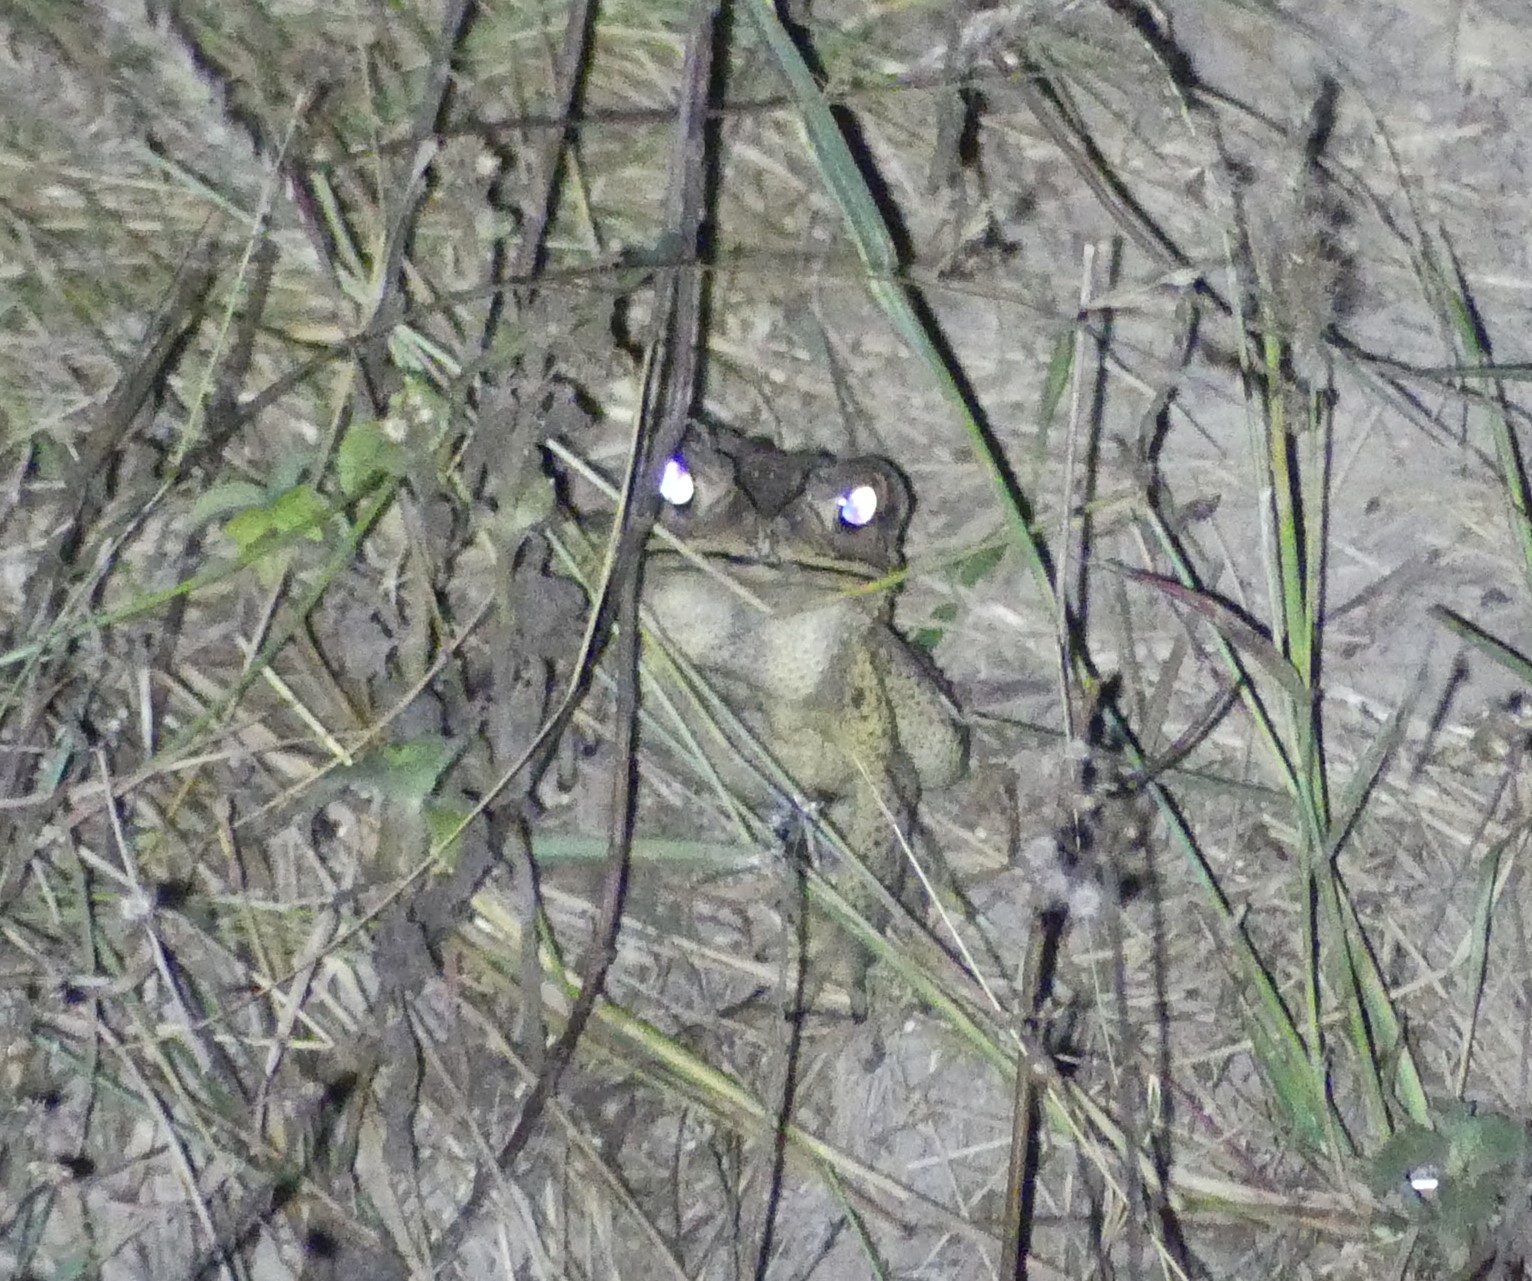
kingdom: Animalia
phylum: Chordata
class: Amphibia
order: Anura
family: Bufonidae
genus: Duttaphrynus
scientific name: Duttaphrynus melanostictus
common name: Common sunda toad
